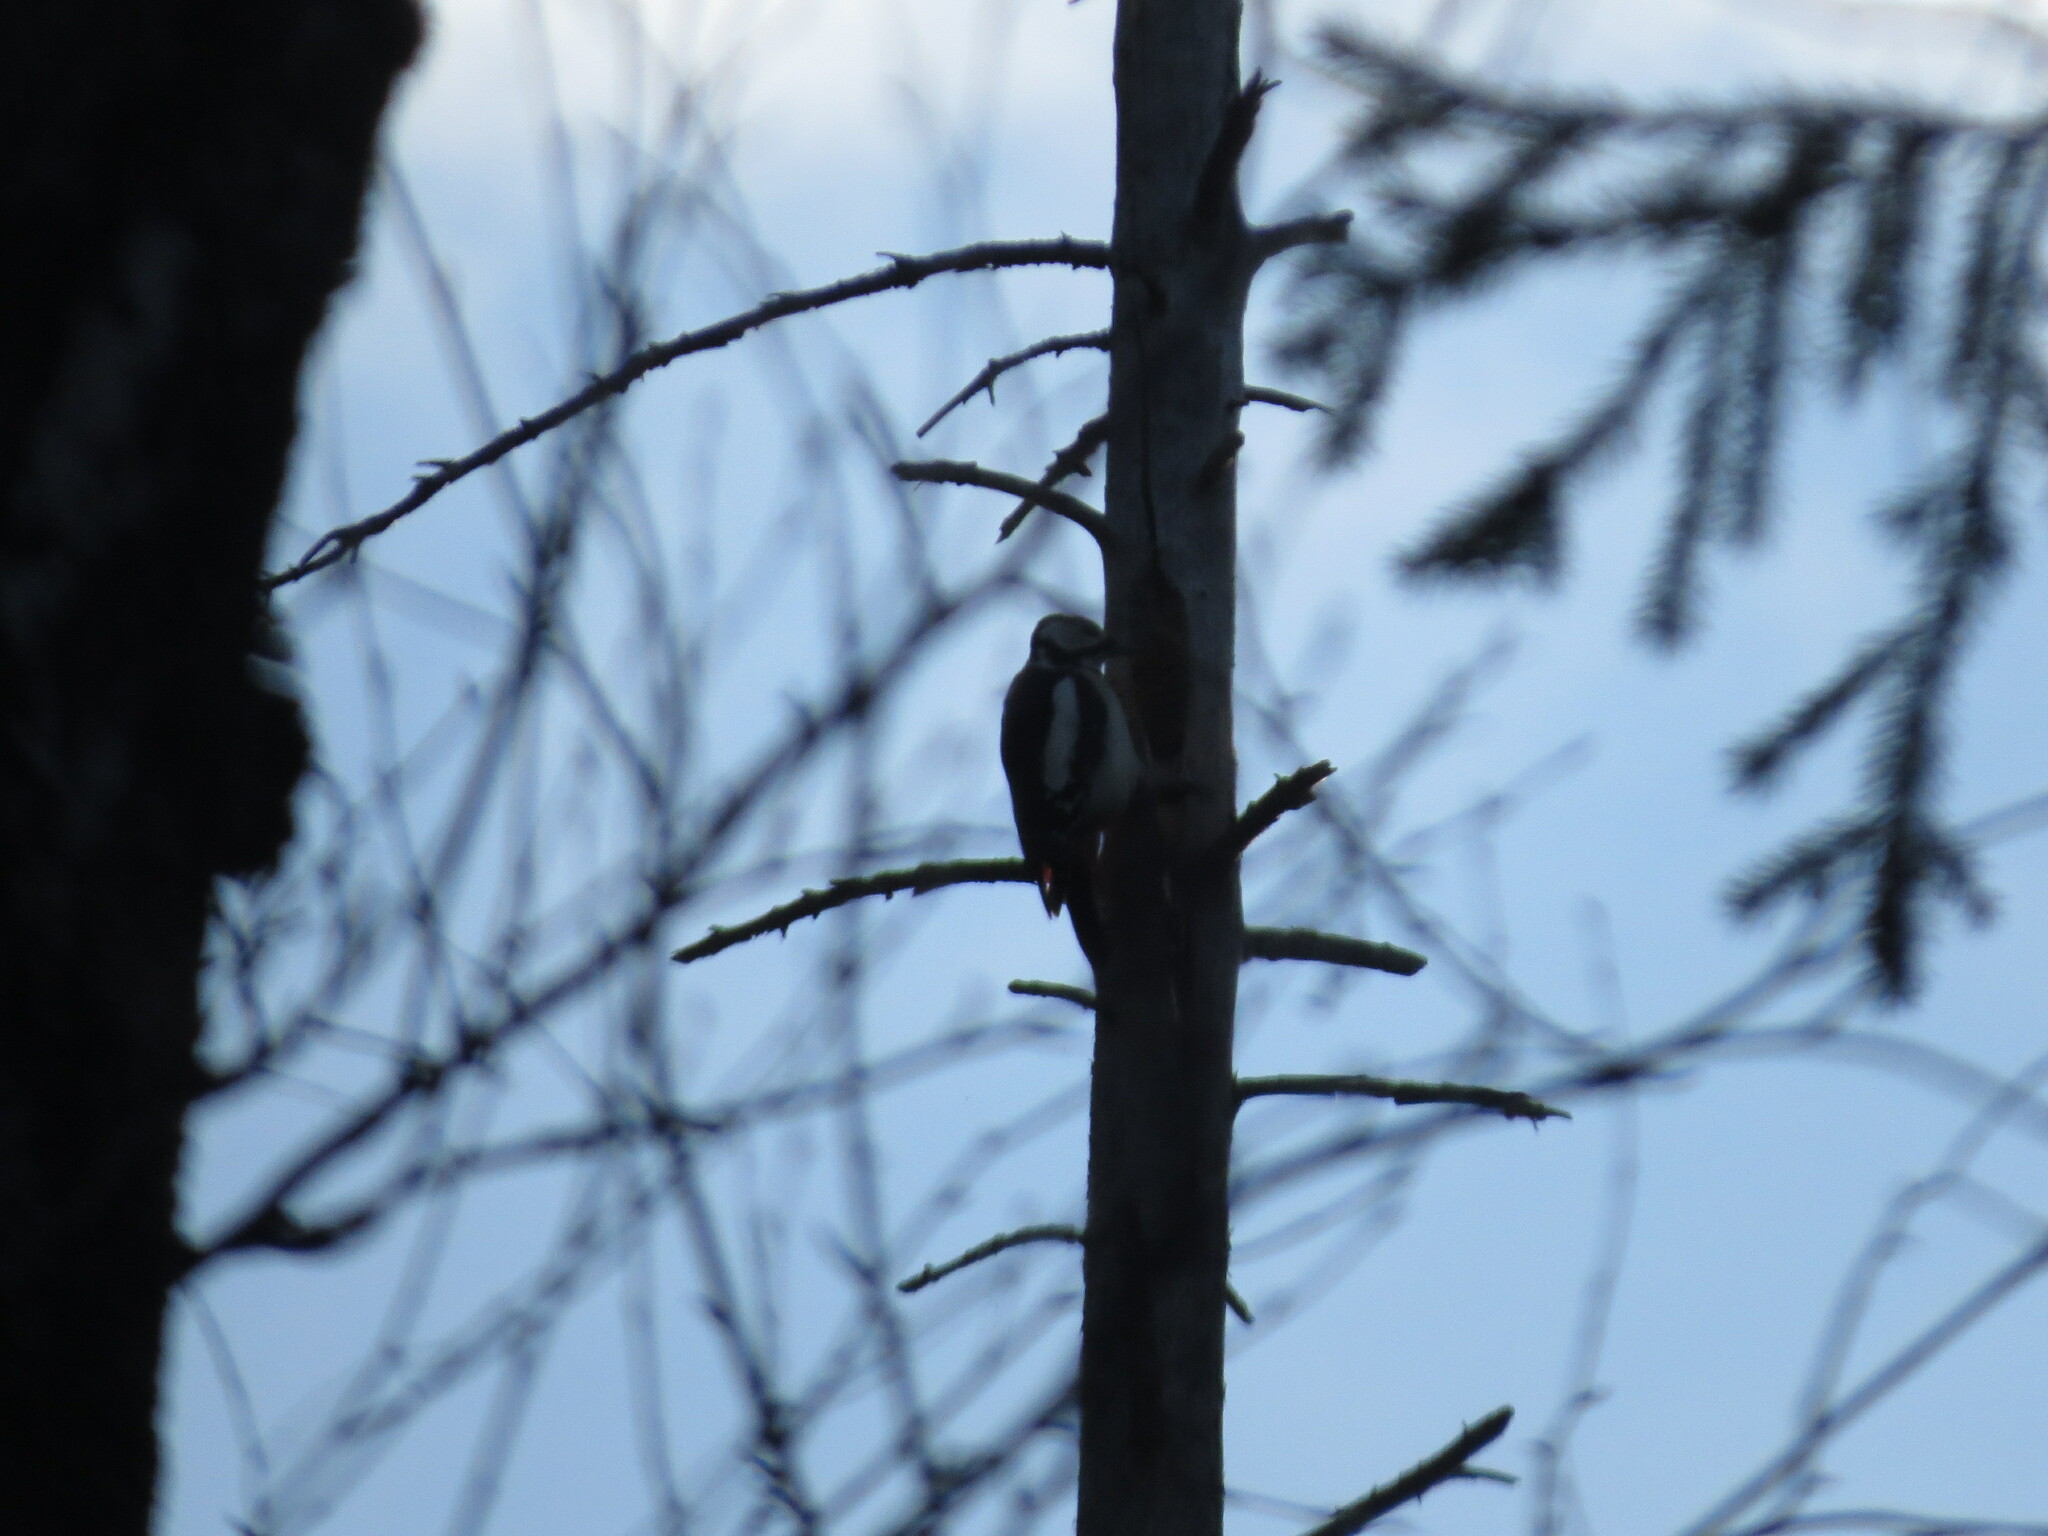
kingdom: Animalia
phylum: Chordata
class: Aves
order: Piciformes
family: Picidae
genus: Dendrocopos
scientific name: Dendrocopos major
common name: Great spotted woodpecker
